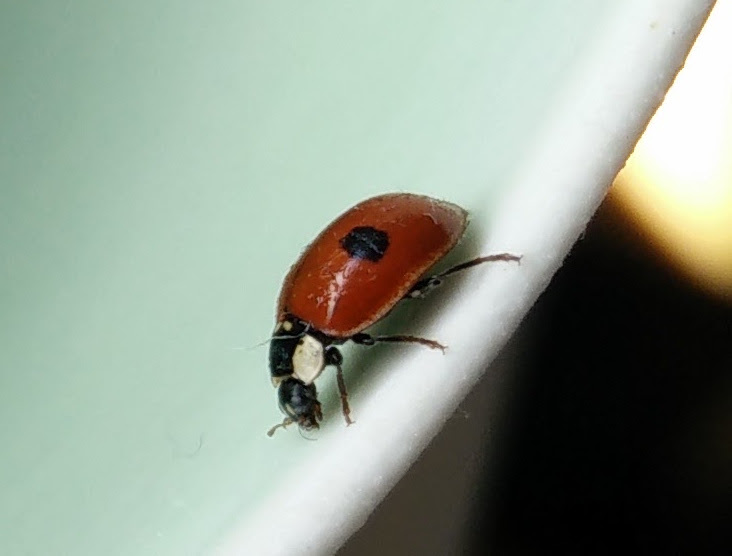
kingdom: Animalia
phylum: Arthropoda
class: Insecta
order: Coleoptera
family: Coccinellidae
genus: Adalia
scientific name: Adalia bipunctata
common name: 2-spot ladybird
